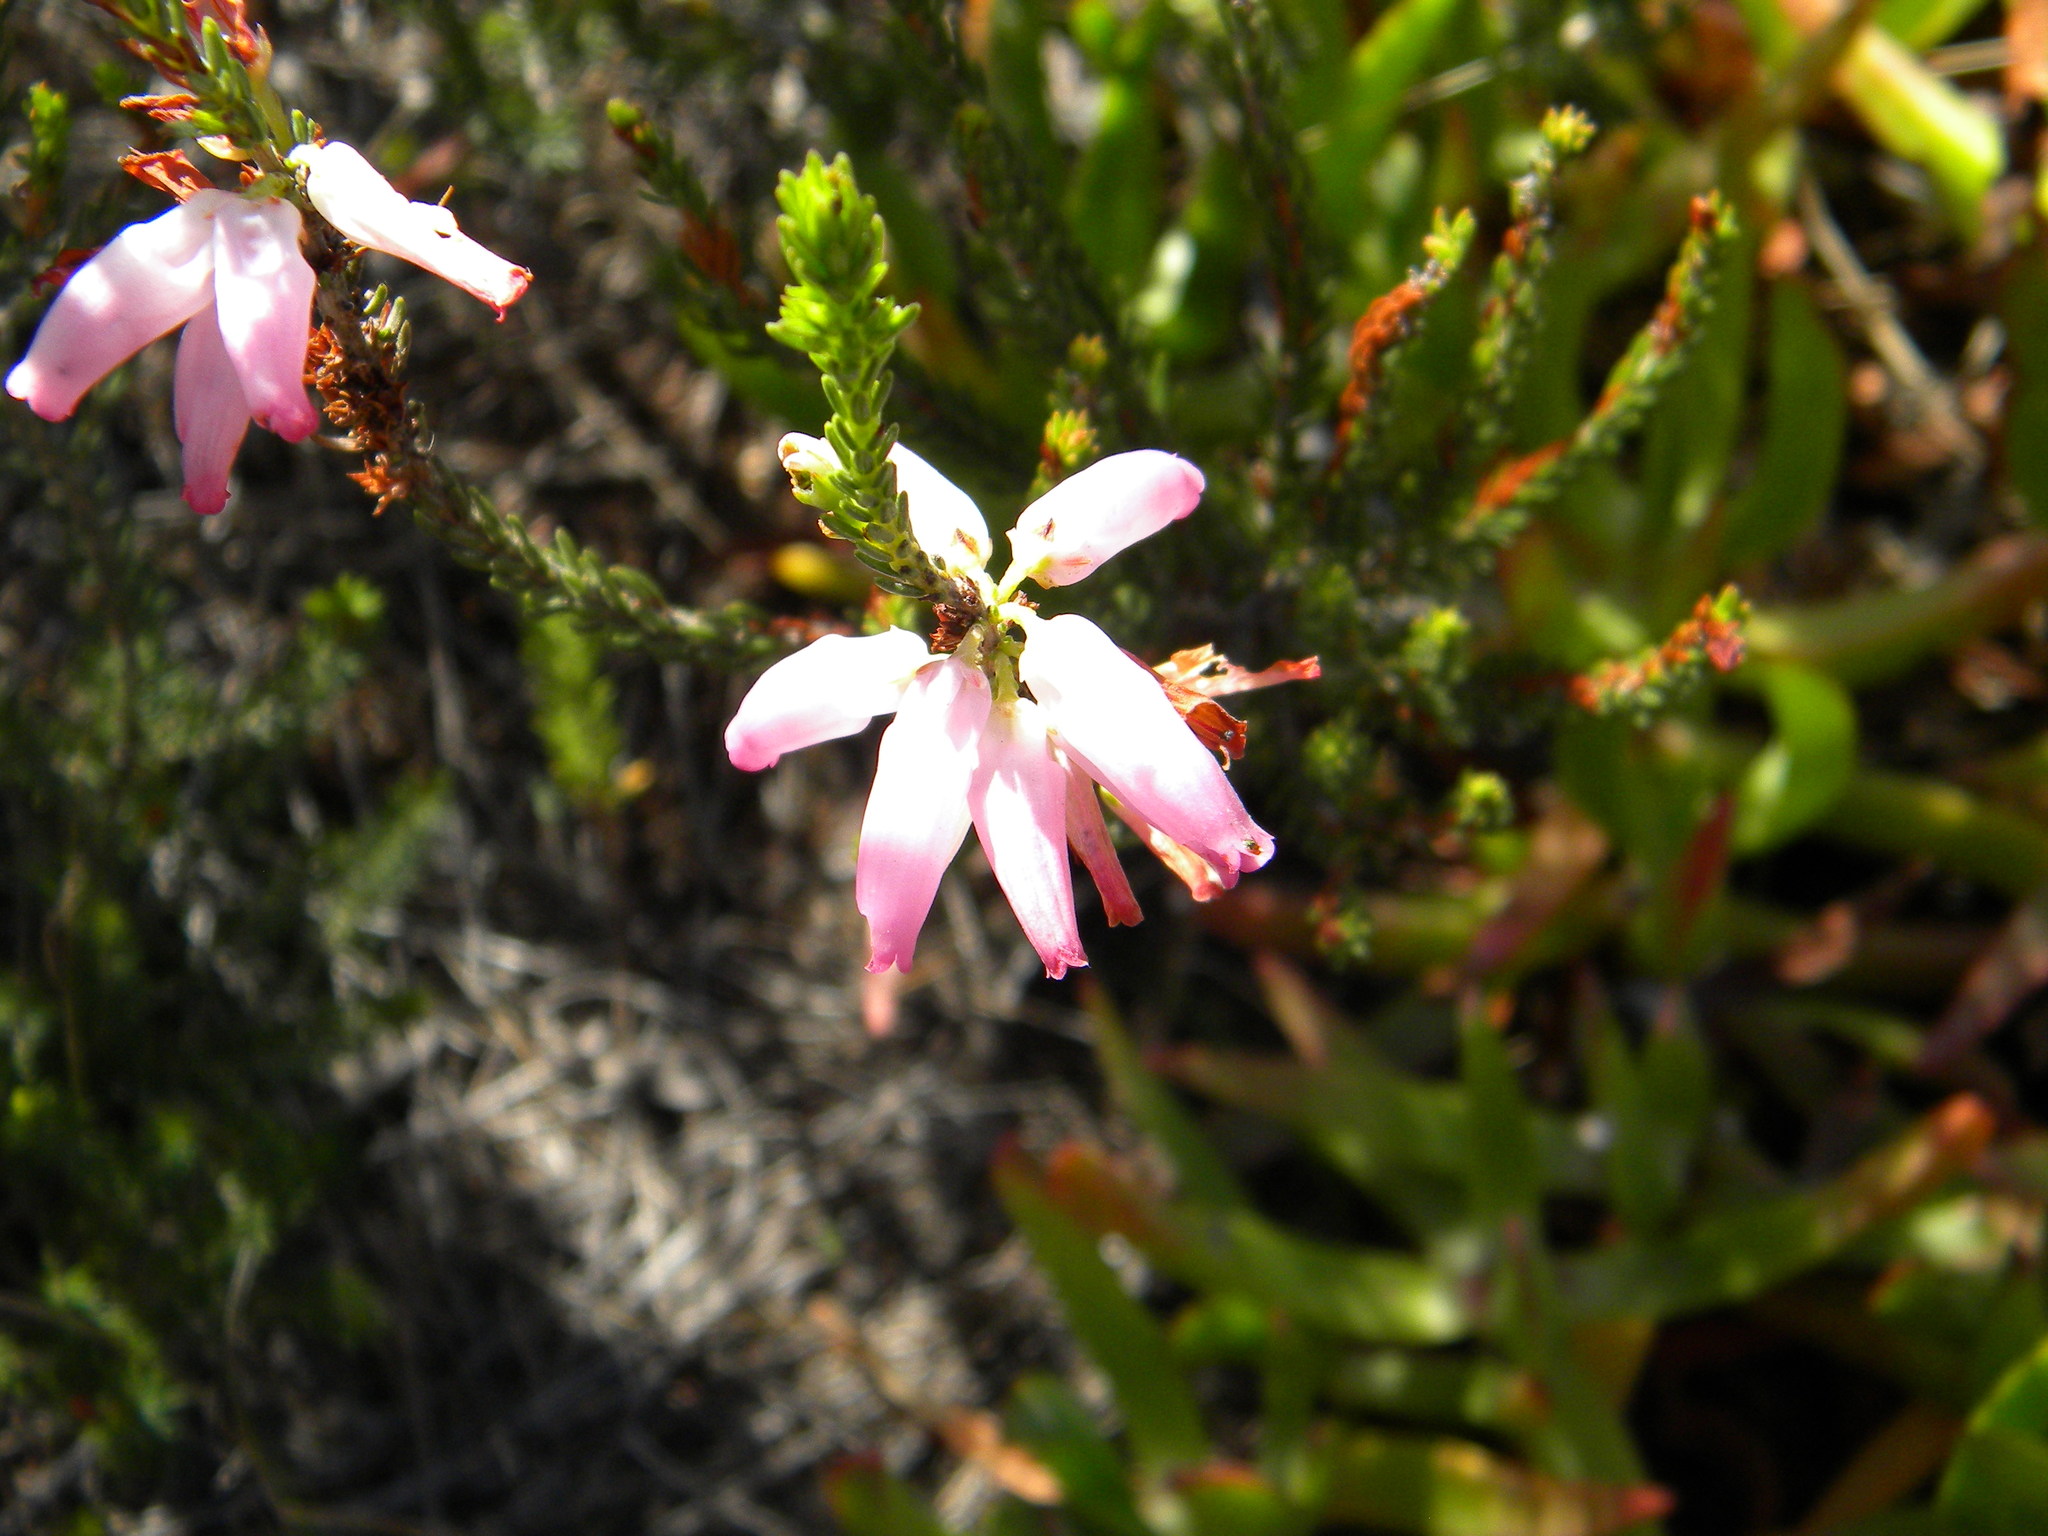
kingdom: Plantae
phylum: Tracheophyta
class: Magnoliopsida
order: Ericales
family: Ericaceae
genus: Erica
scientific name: Erica mammosa
